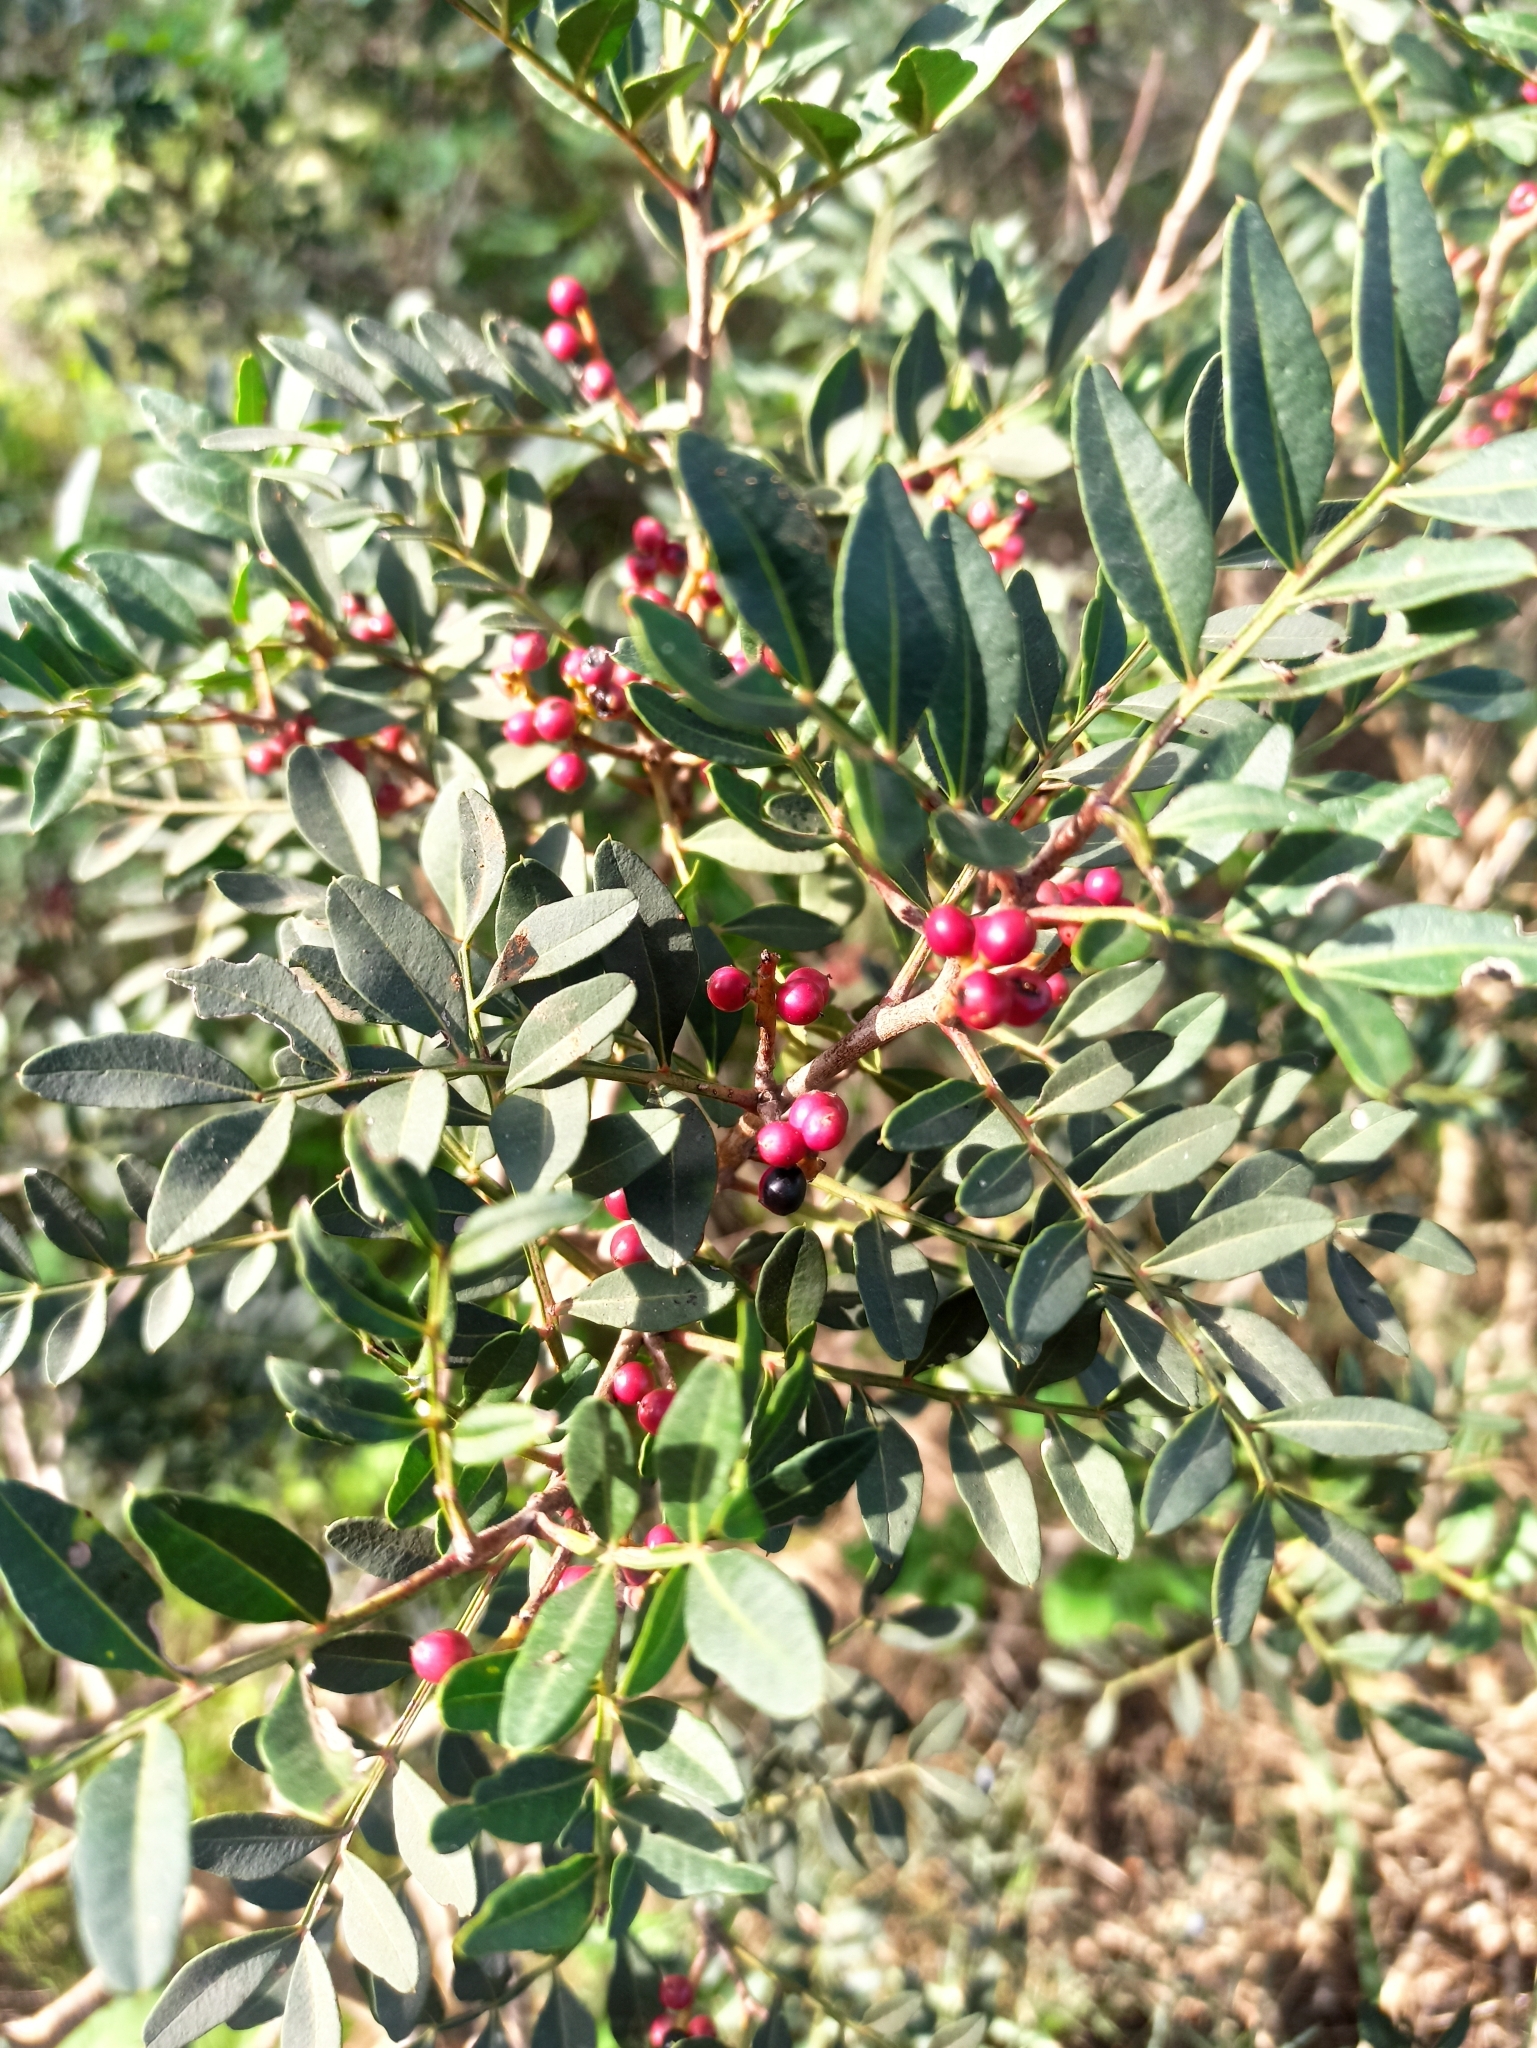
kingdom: Plantae
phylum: Tracheophyta
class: Magnoliopsida
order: Sapindales
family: Anacardiaceae
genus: Pistacia
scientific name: Pistacia lentiscus
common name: Lentisk
